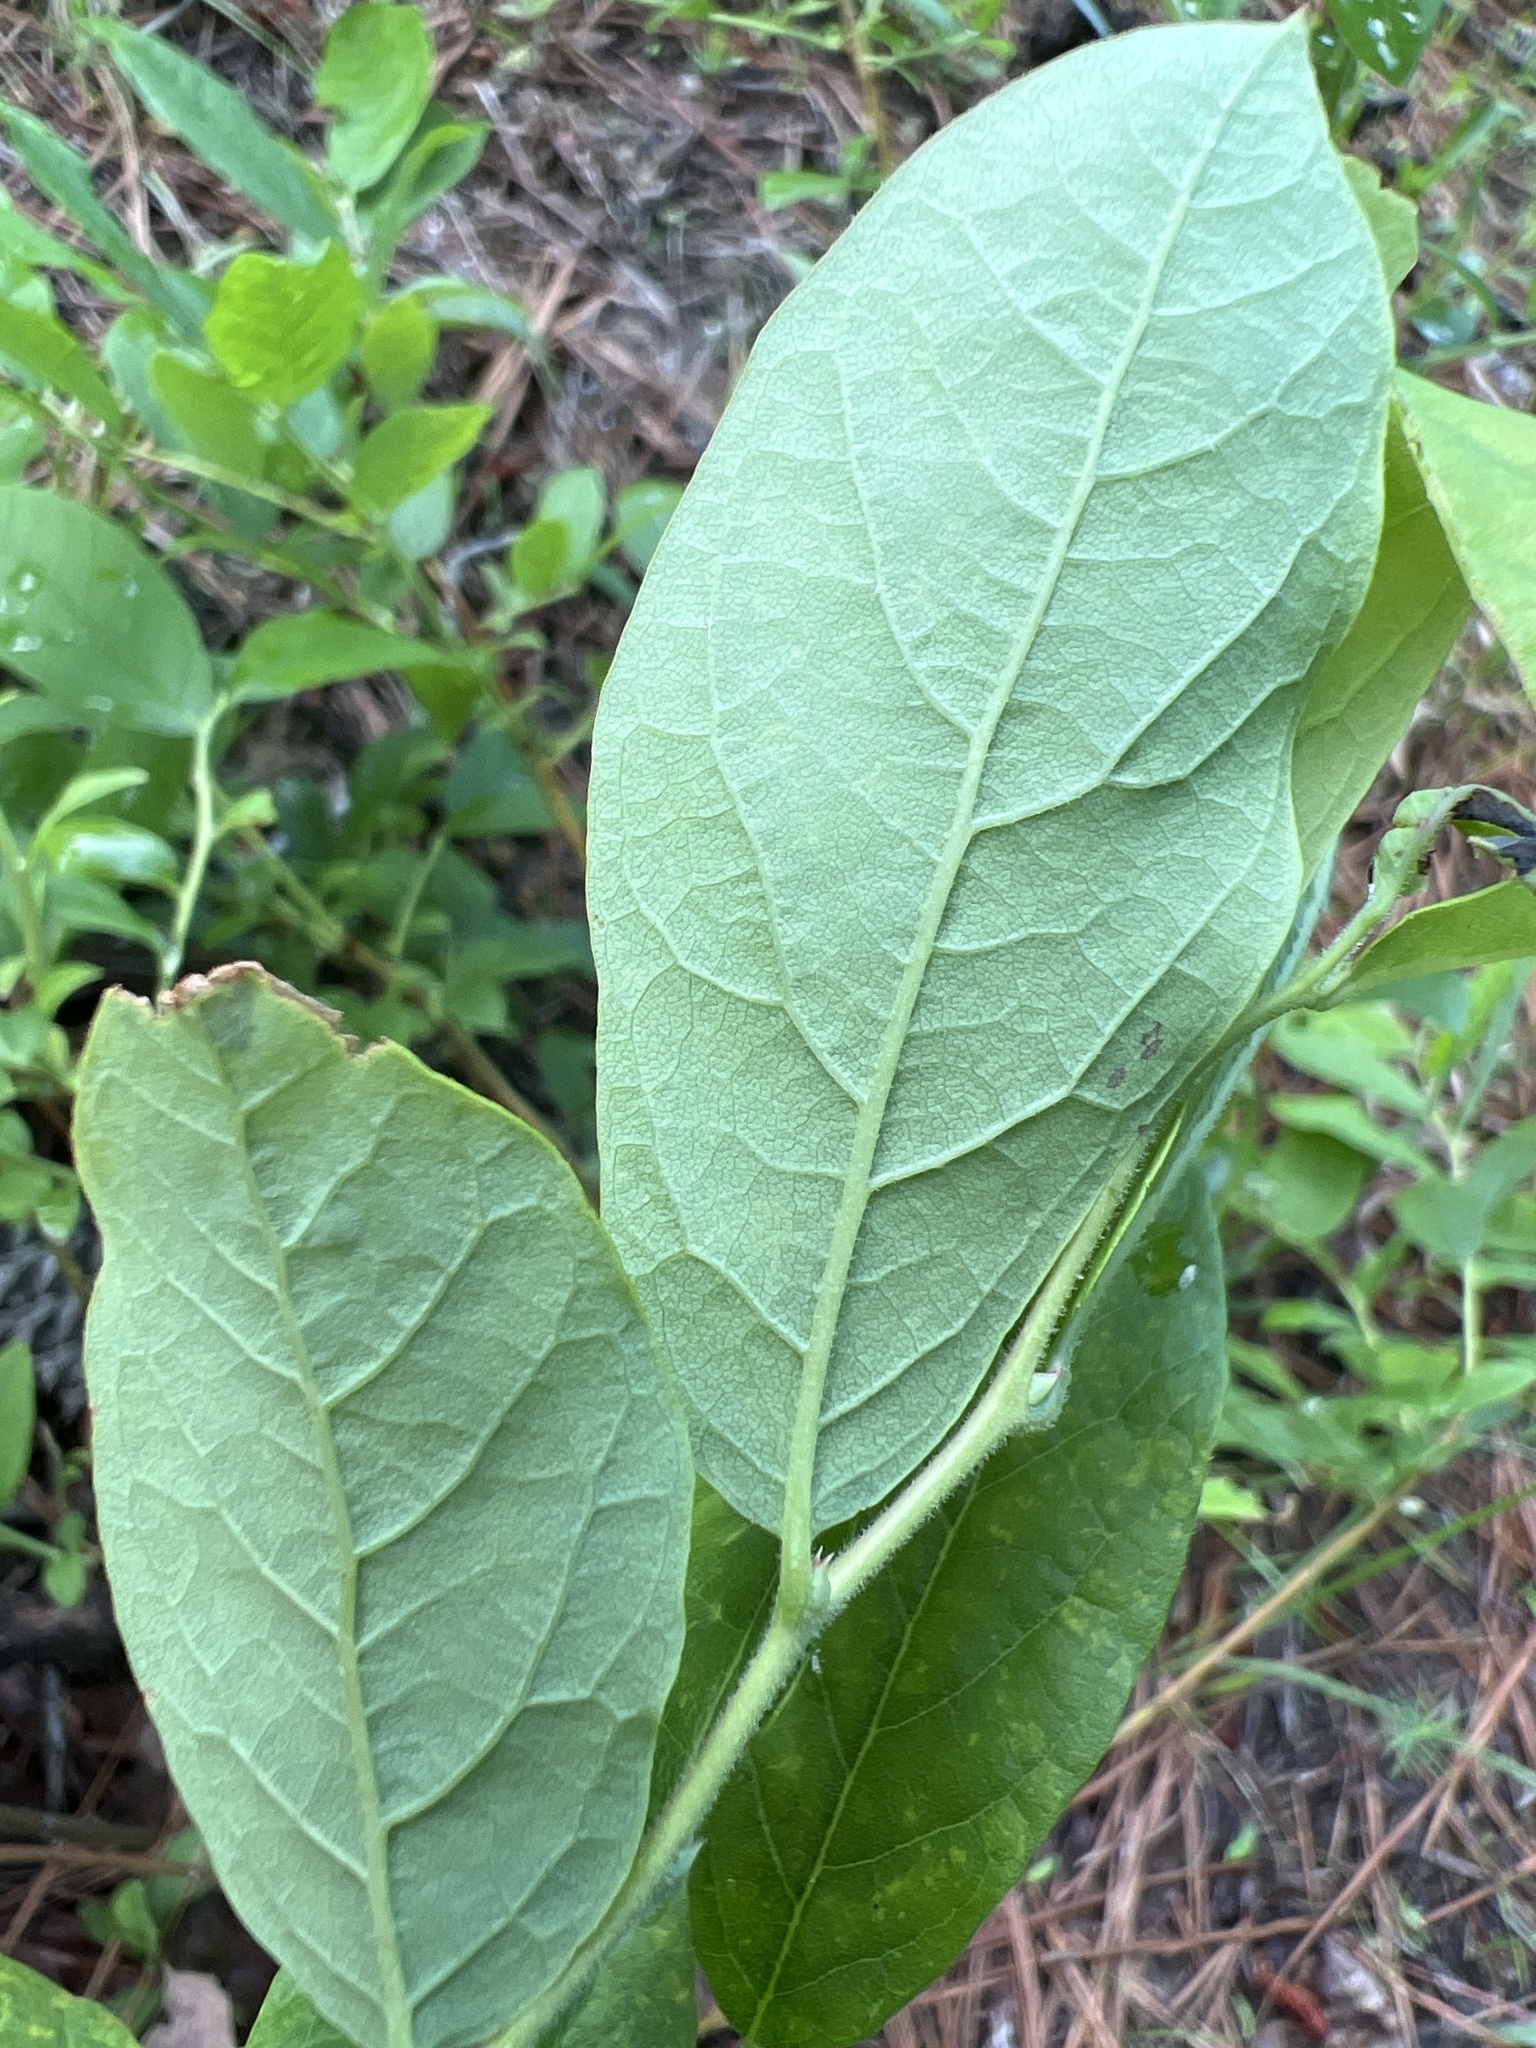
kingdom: Plantae
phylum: Tracheophyta
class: Magnoliopsida
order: Ericales
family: Ericaceae
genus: Vaccinium
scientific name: Vaccinium stamineum
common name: Deerberry
